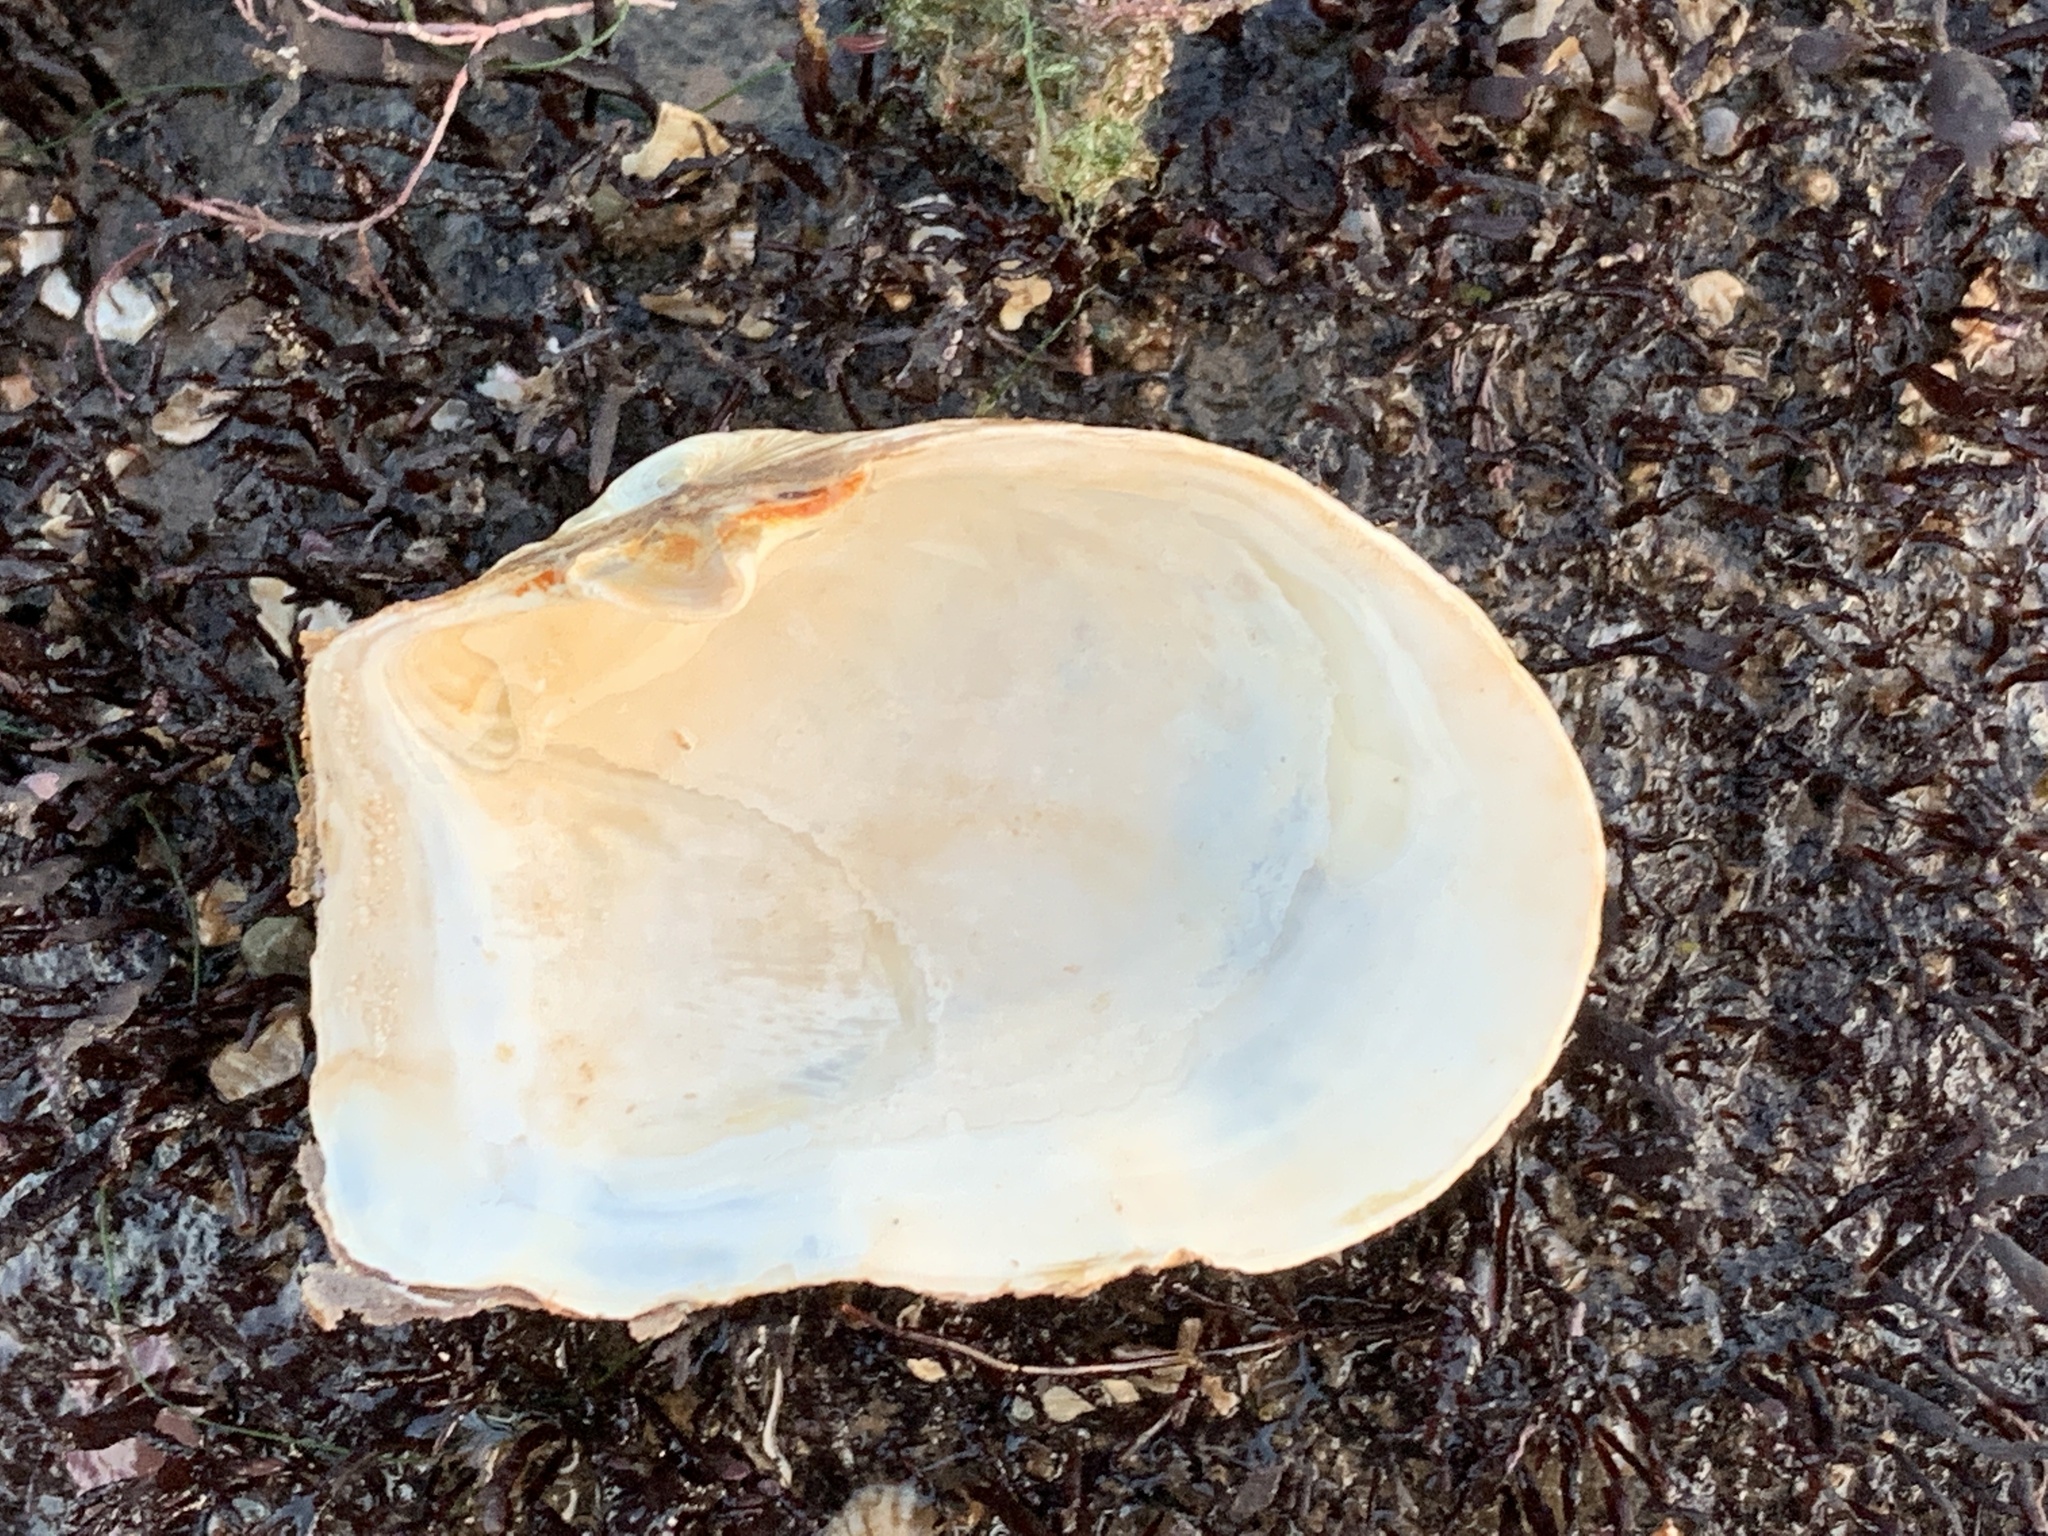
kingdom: Animalia
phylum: Mollusca
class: Bivalvia
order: Myida
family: Myidae
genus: Mya
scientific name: Mya truncata
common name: Blunt gaper
